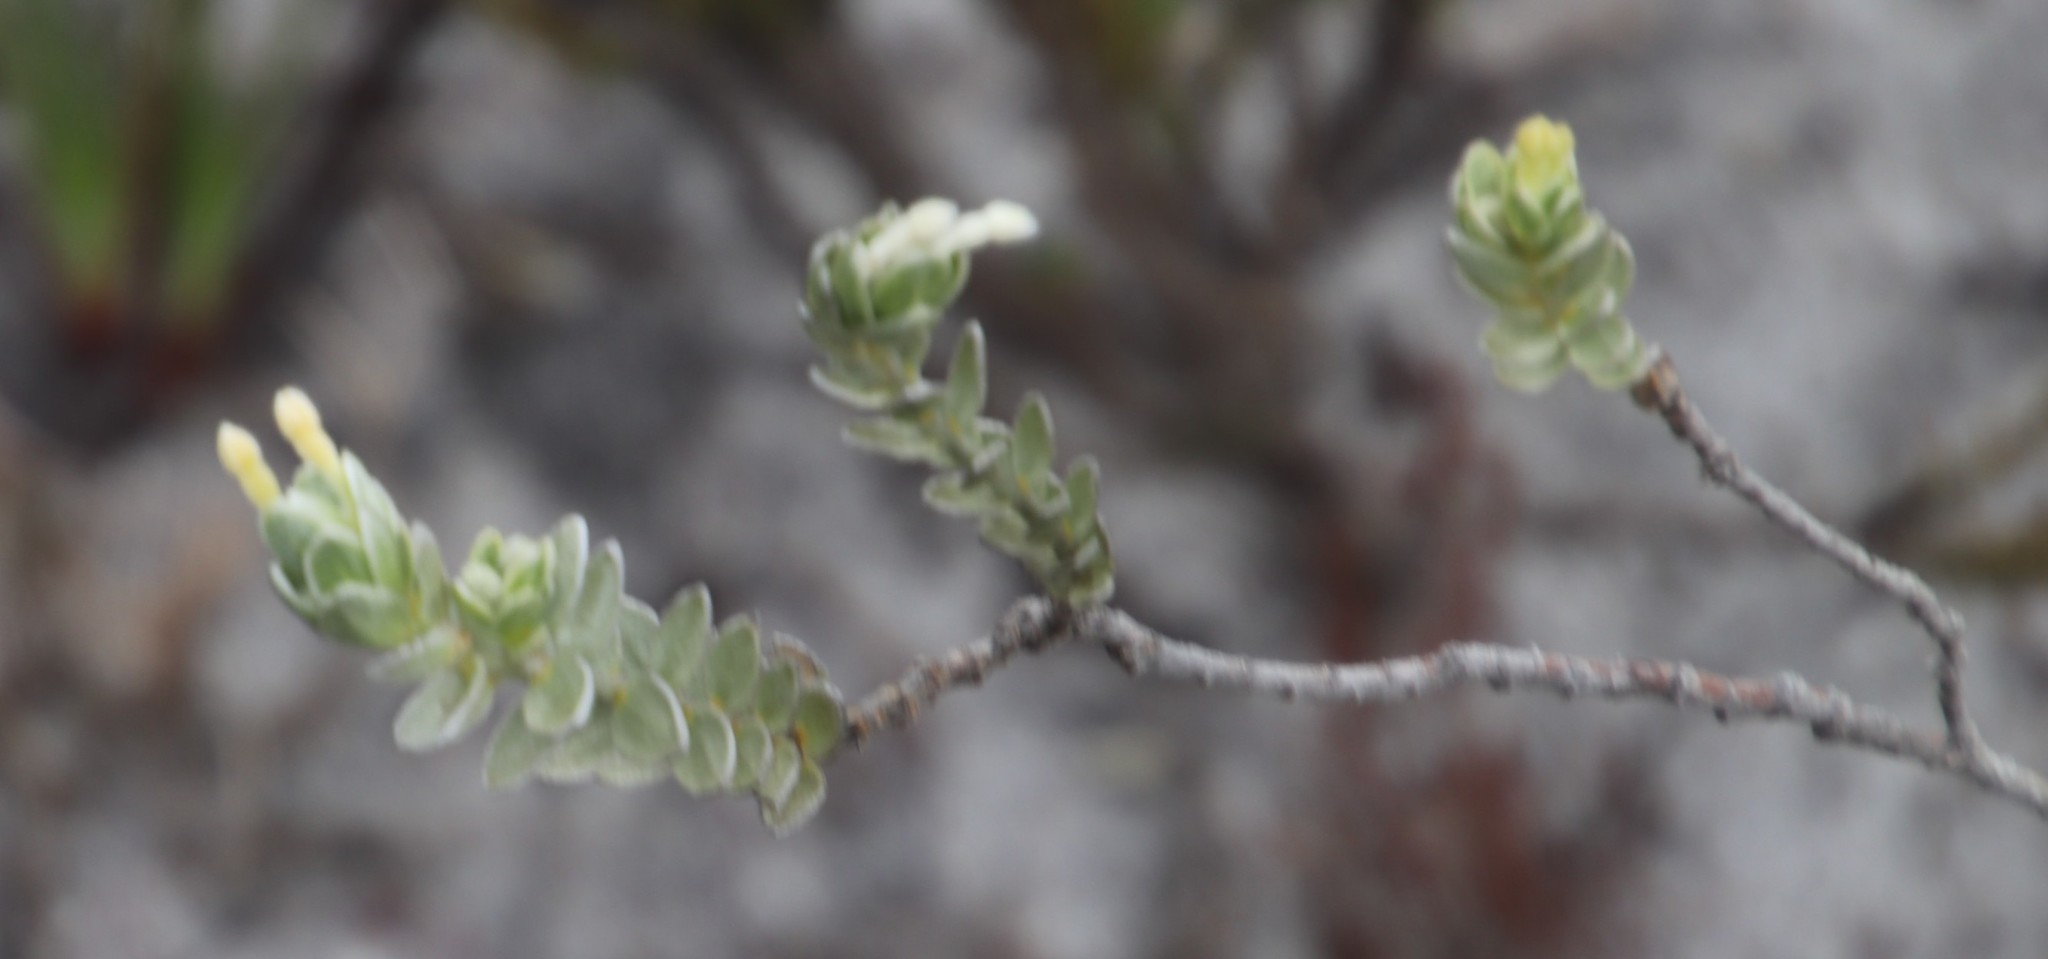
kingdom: Plantae
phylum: Tracheophyta
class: Magnoliopsida
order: Malvales
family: Thymelaeaceae
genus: Gnidia
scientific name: Gnidia imbricata
